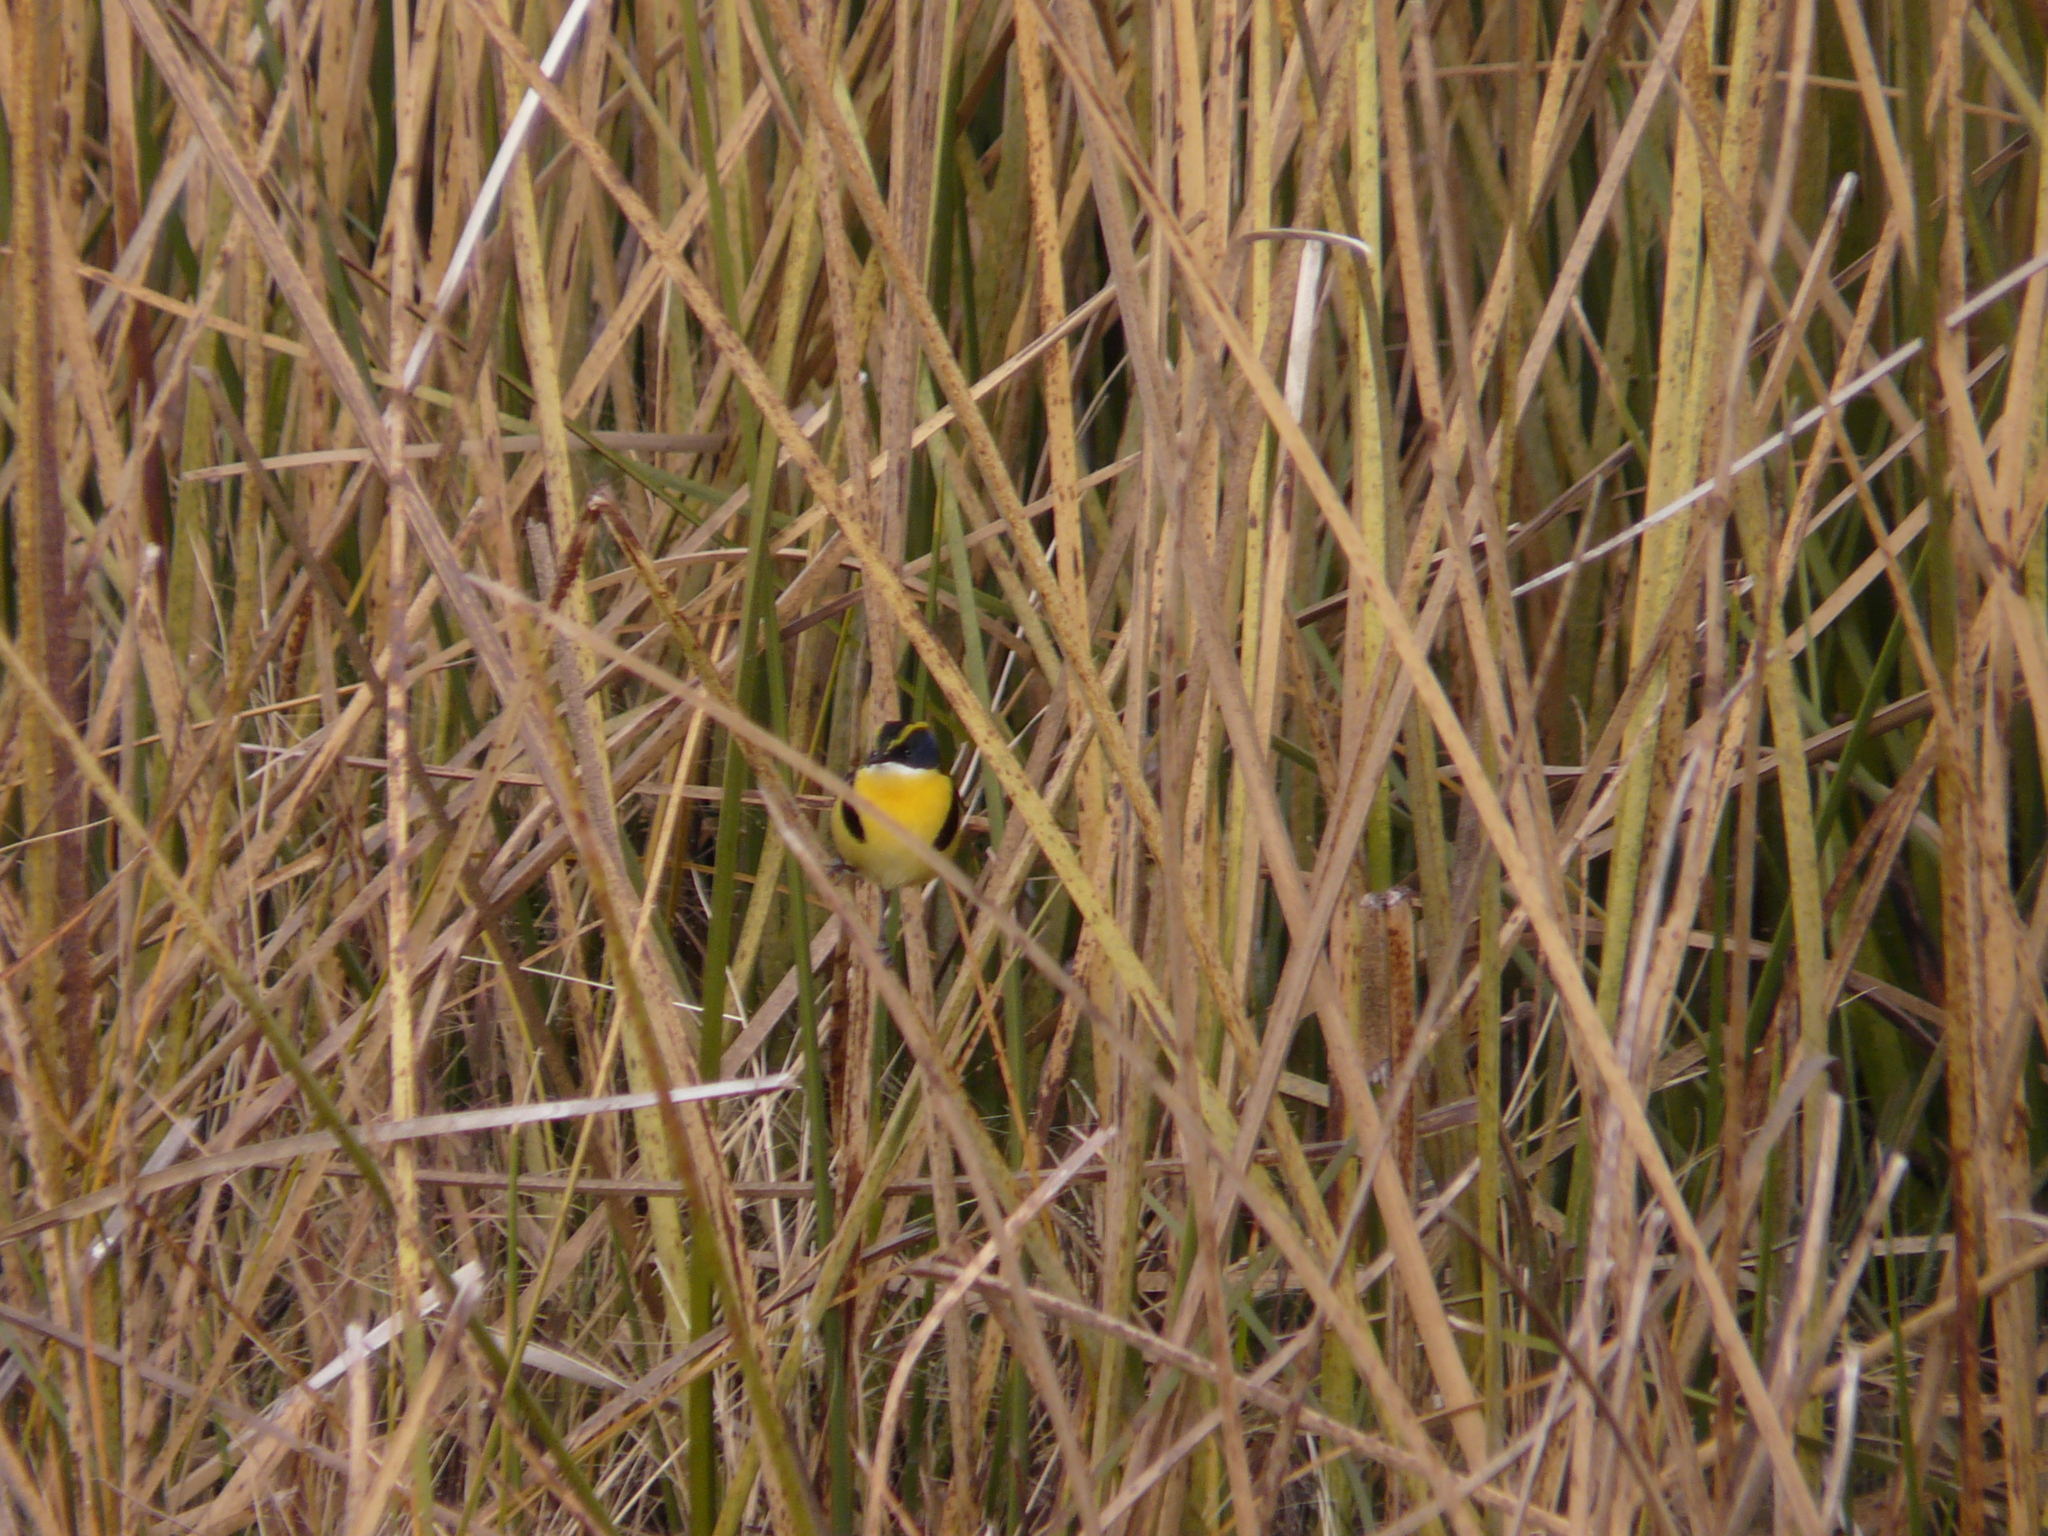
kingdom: Animalia
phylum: Chordata
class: Aves
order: Passeriformes
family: Tyrannidae
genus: Tachuris
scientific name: Tachuris rubrigastra
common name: Many-colored rush tyrant
